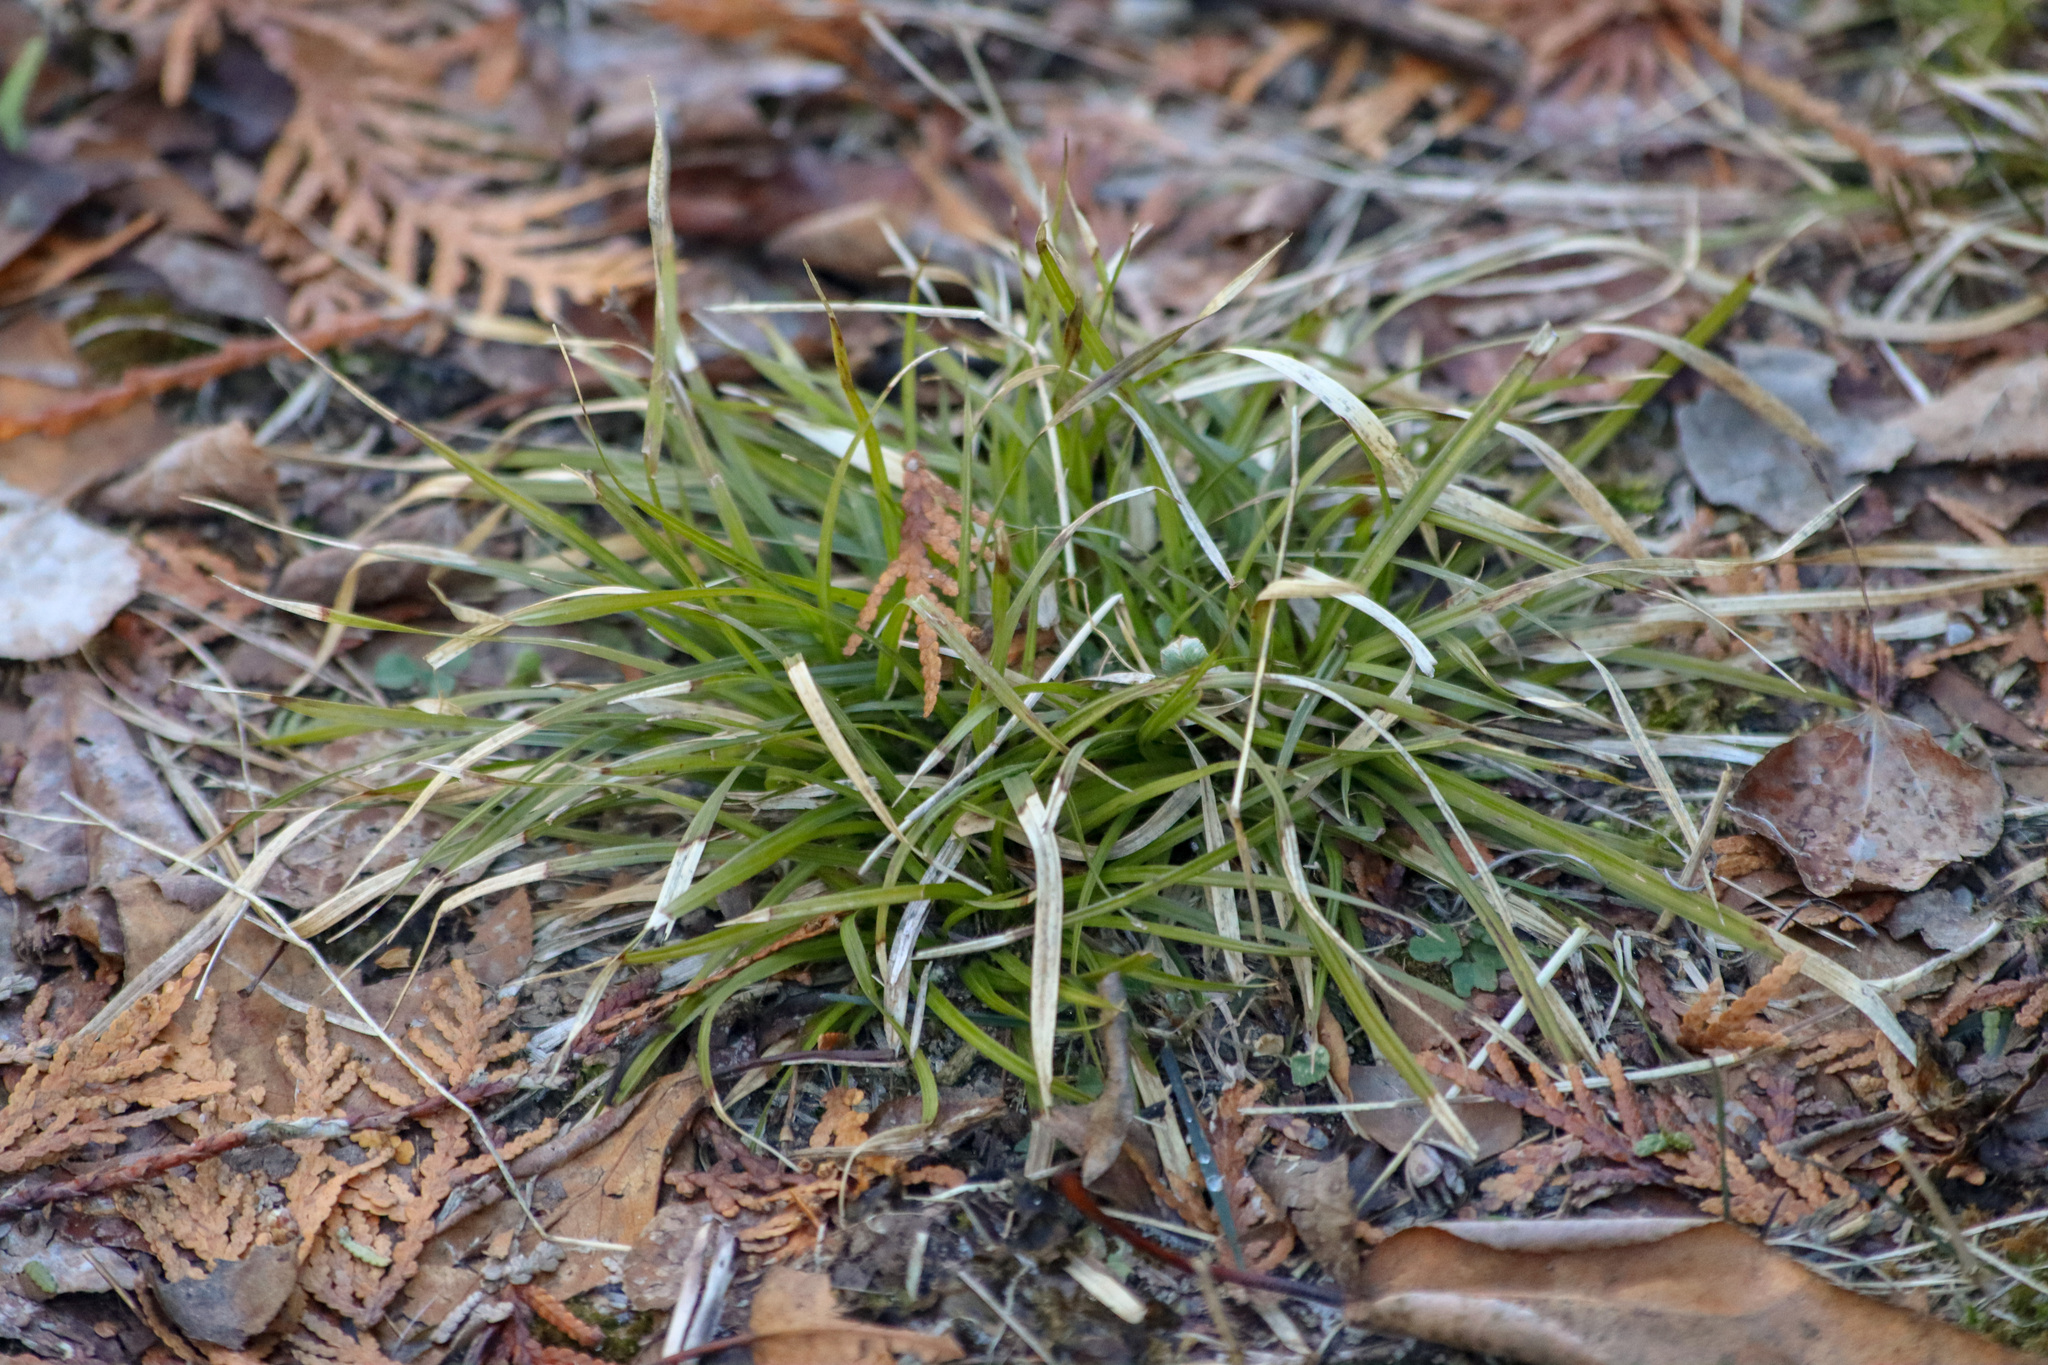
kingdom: Plantae
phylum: Tracheophyta
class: Liliopsida
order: Poales
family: Cyperaceae
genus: Carex
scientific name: Carex pedunculata
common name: Pedunculate sedge
